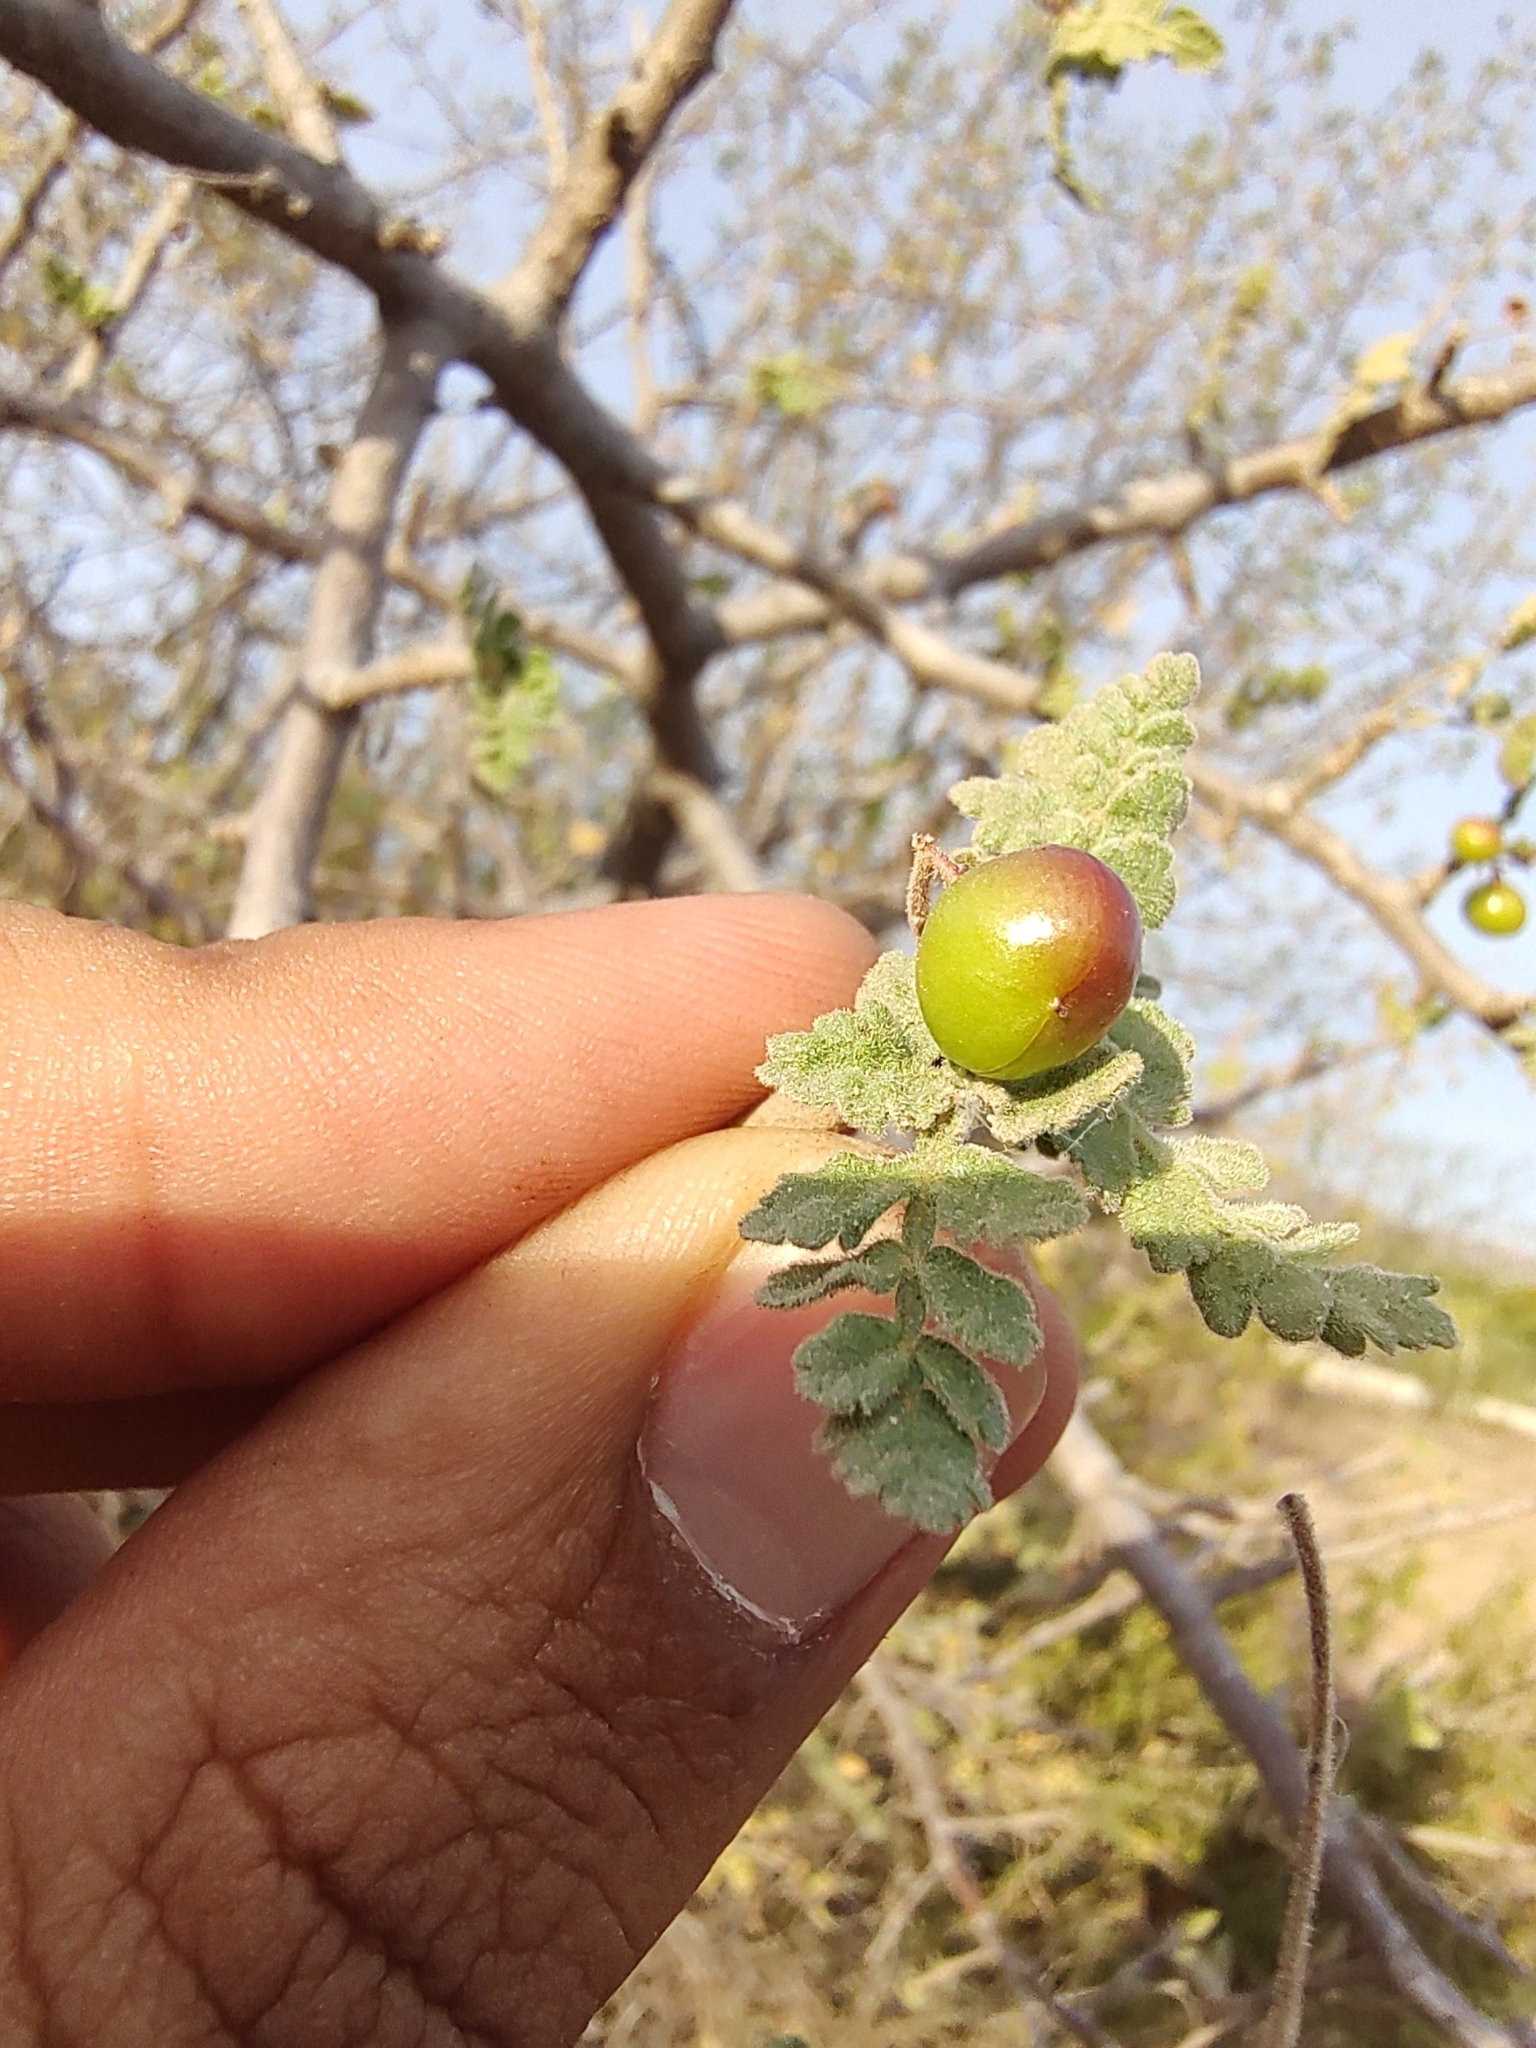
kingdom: Plantae
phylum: Tracheophyta
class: Magnoliopsida
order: Sapindales
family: Burseraceae
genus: Bursera
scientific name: Bursera filicifolia
